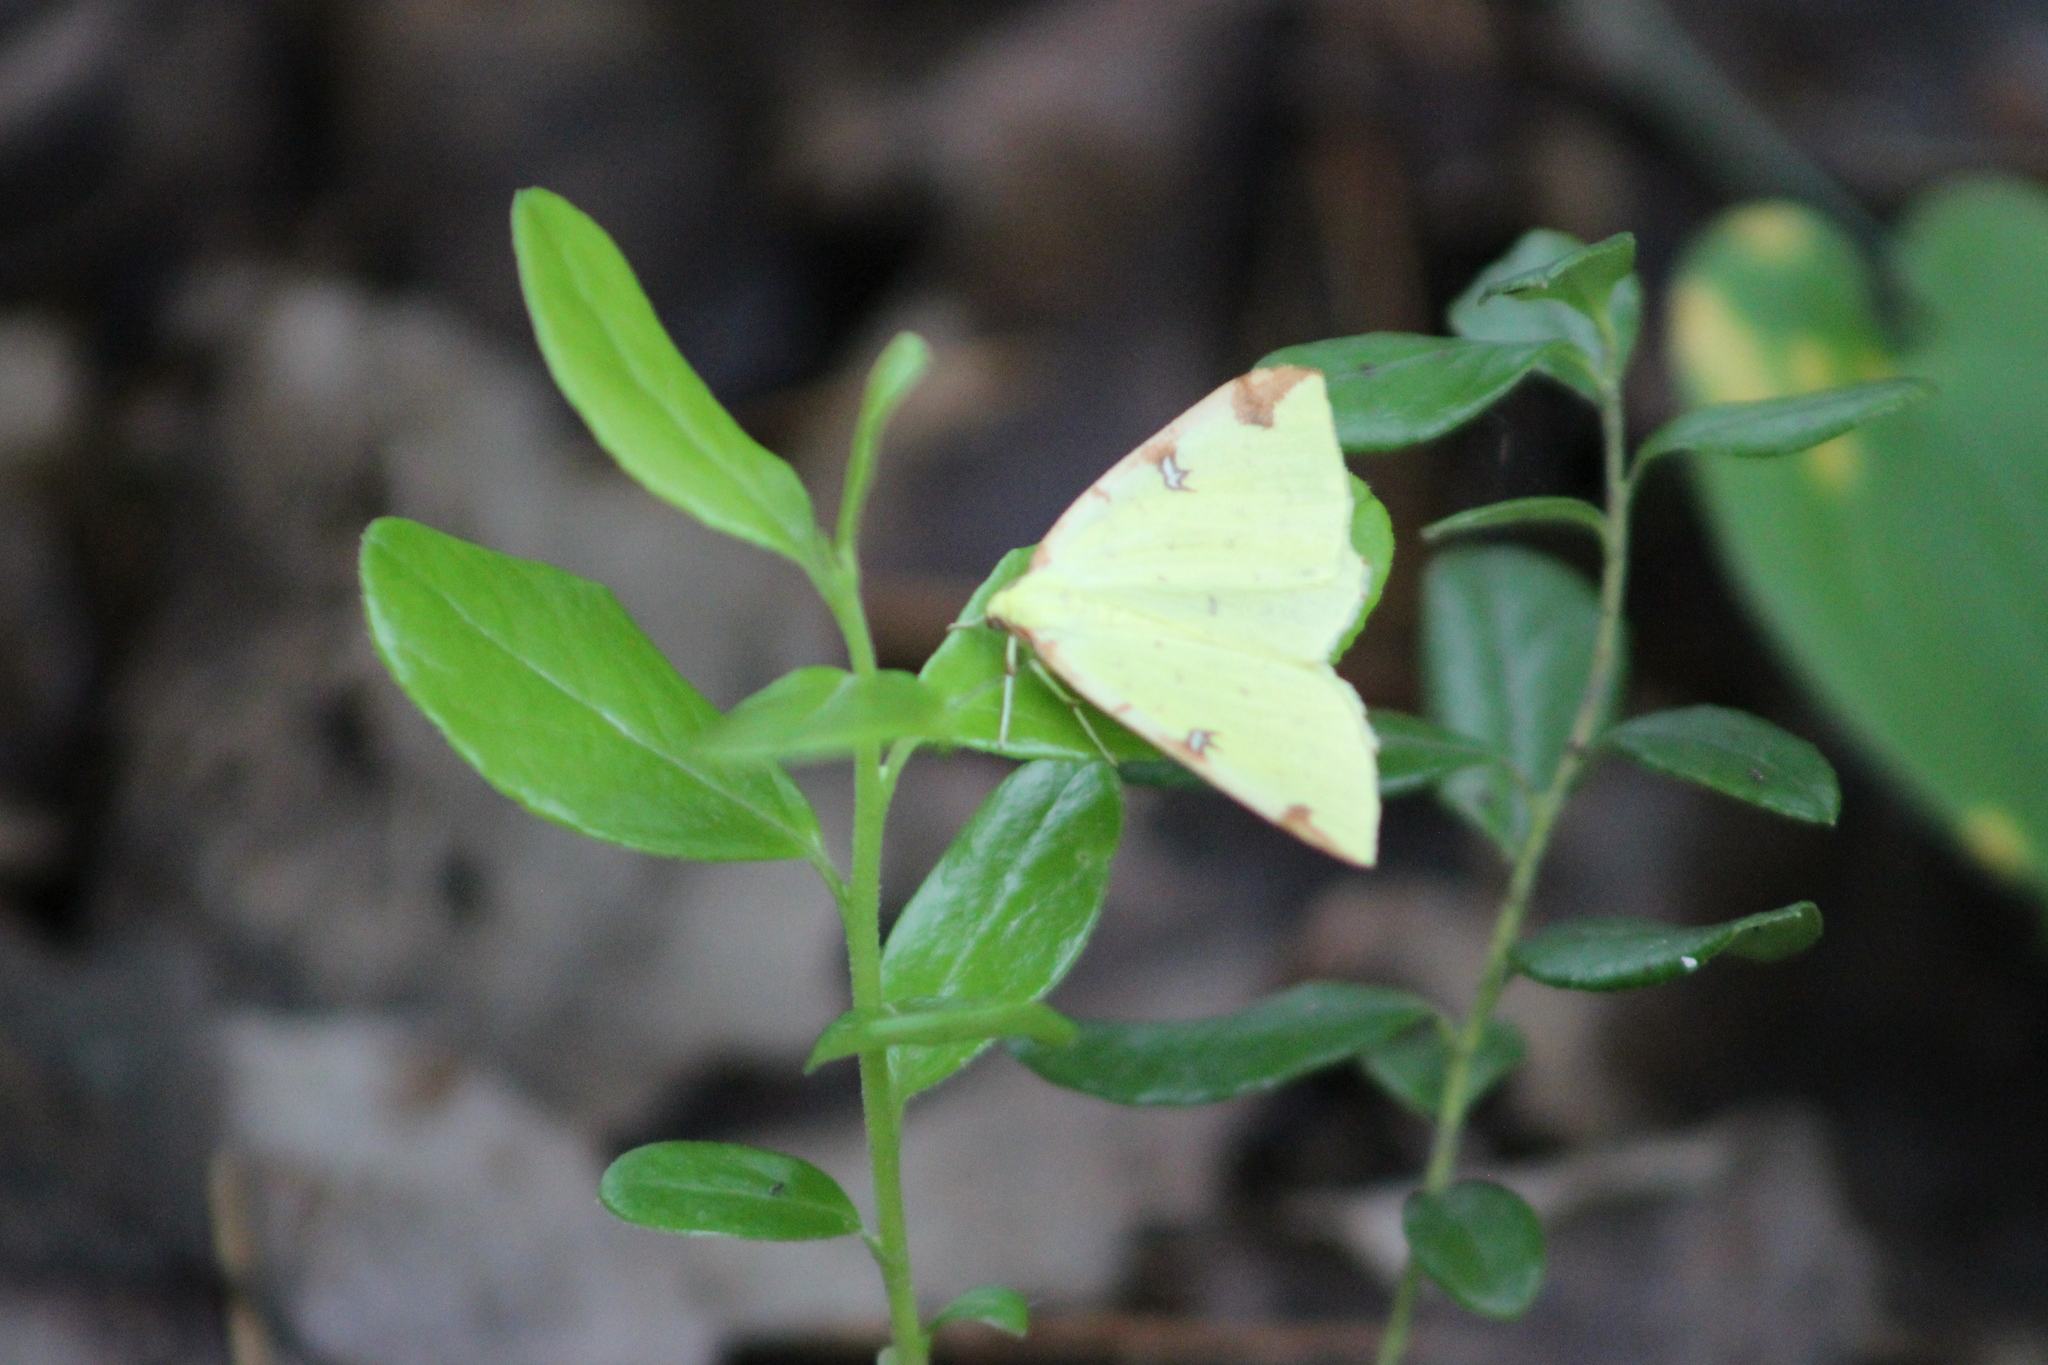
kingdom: Animalia
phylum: Arthropoda
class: Insecta
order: Lepidoptera
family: Geometridae
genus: Opisthograptis
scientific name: Opisthograptis luteolata
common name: Brimstone moth
